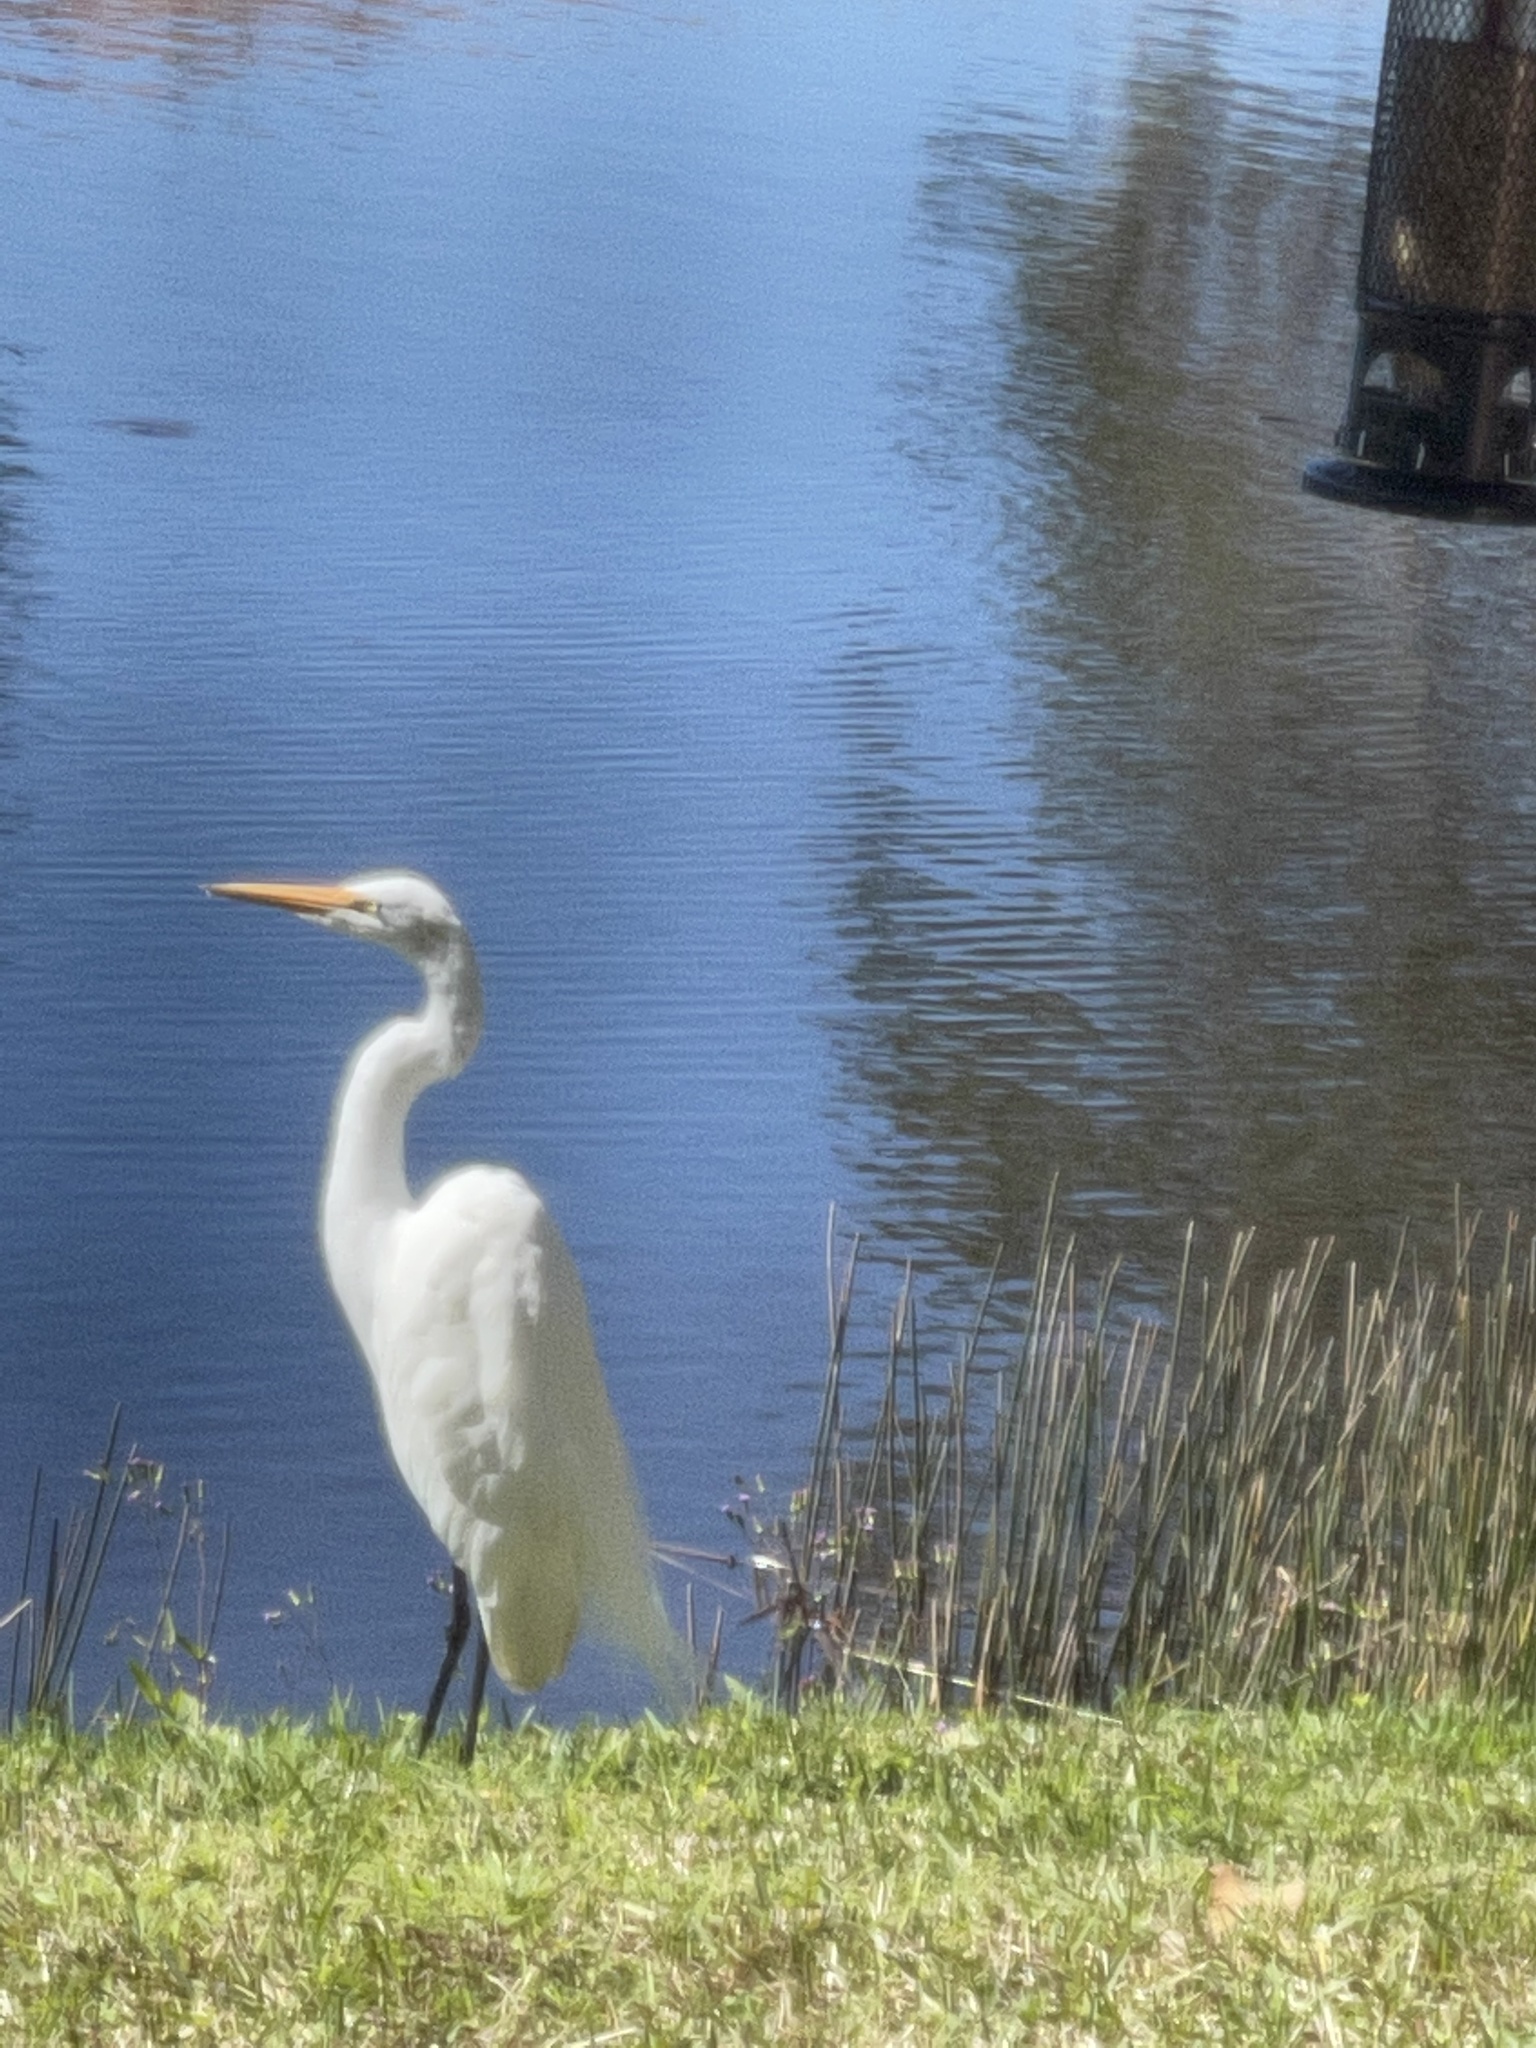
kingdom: Animalia
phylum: Chordata
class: Aves
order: Pelecaniformes
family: Ardeidae
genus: Ardea
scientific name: Ardea alba
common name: Great egret
